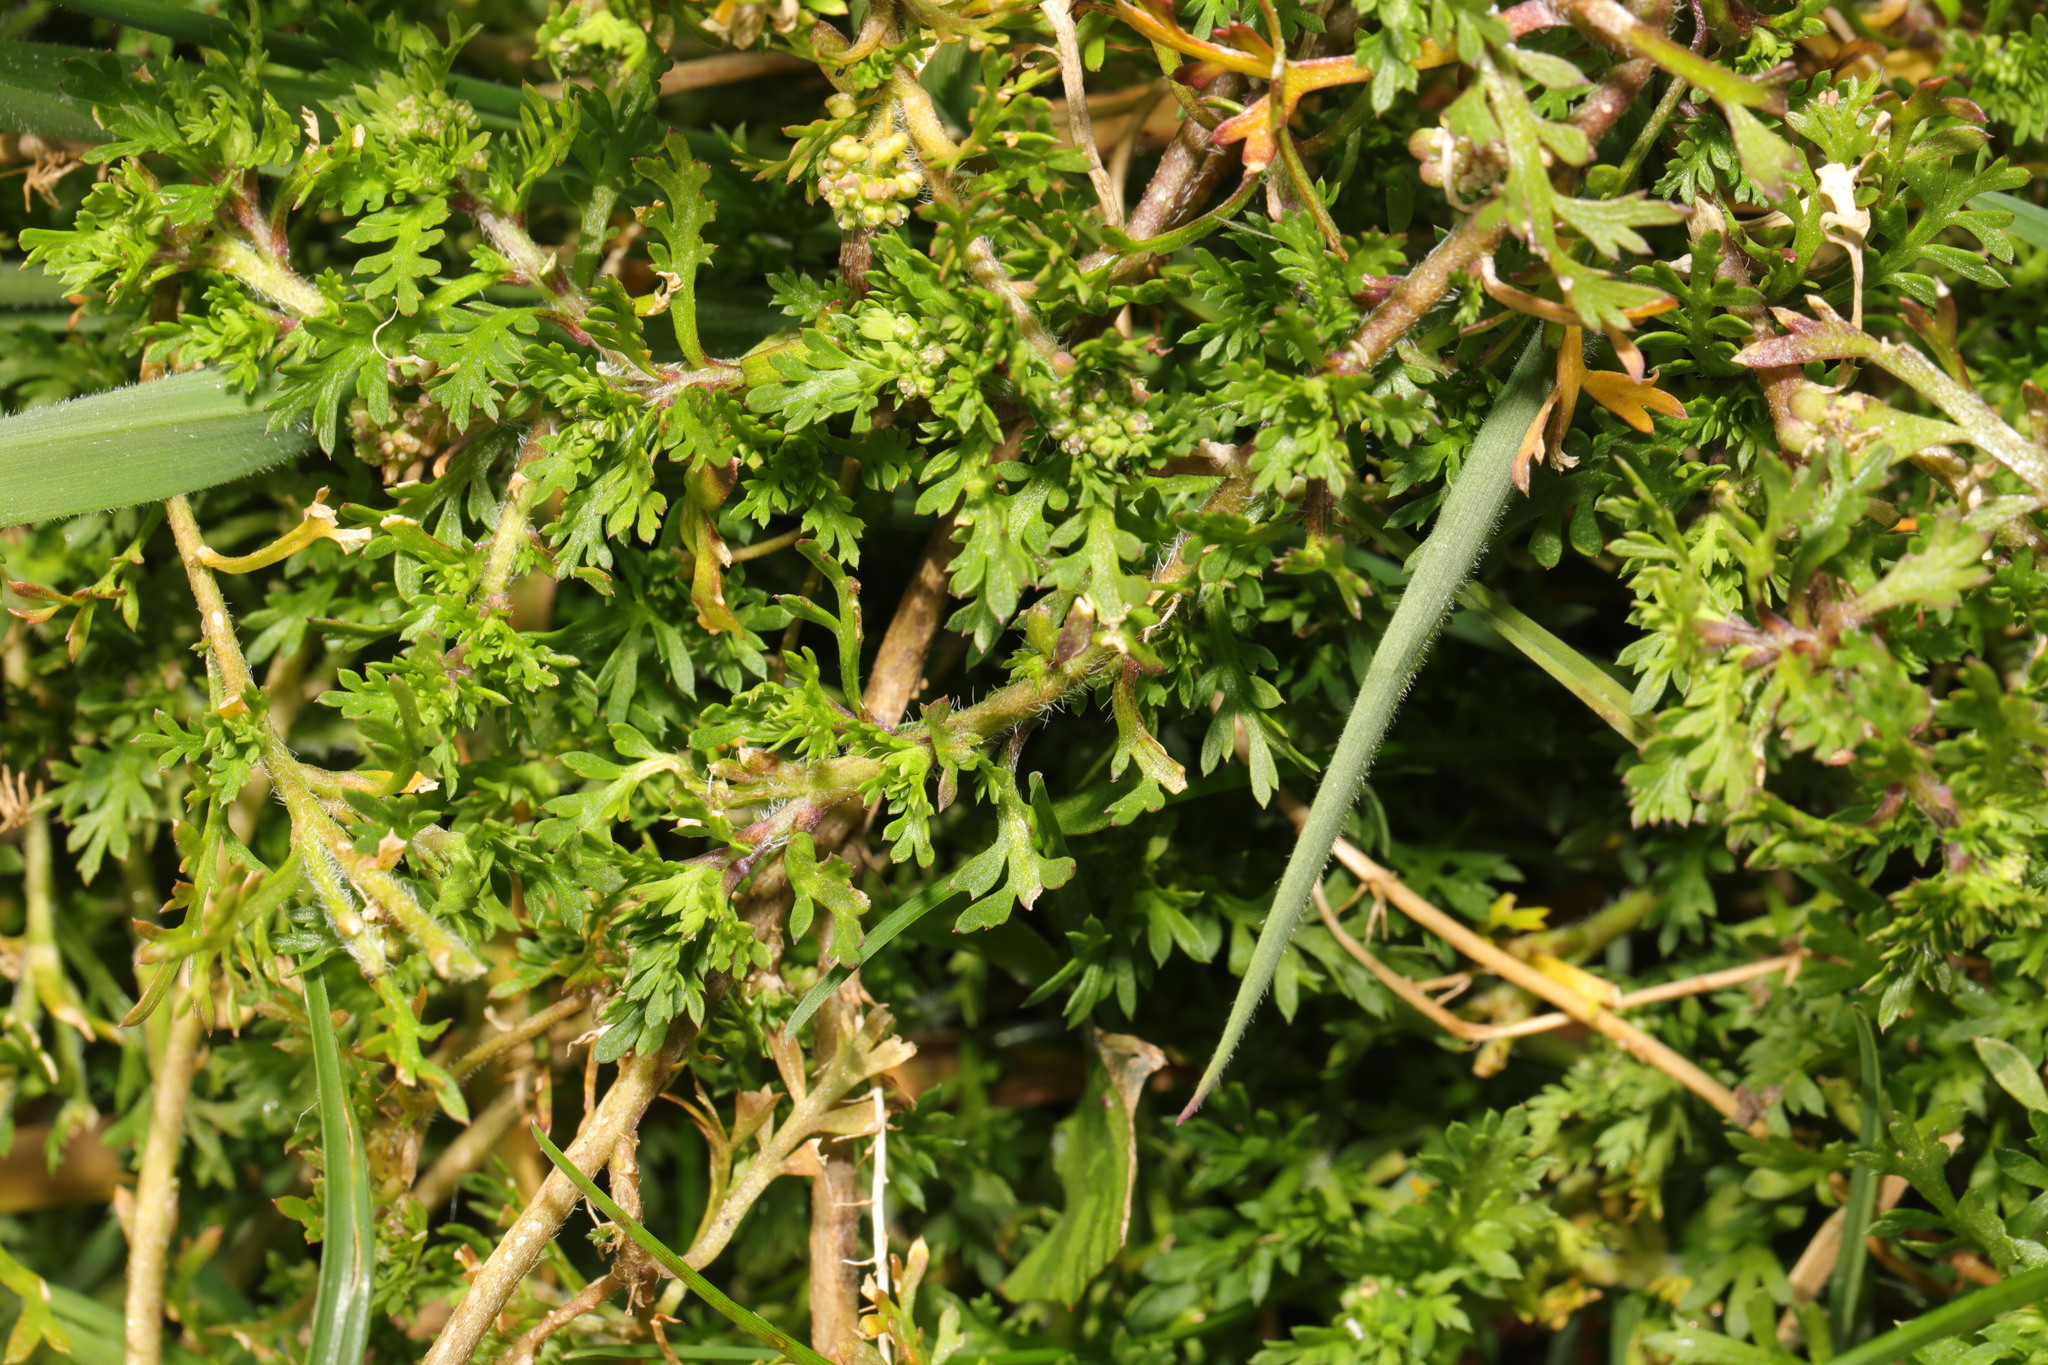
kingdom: Plantae
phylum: Tracheophyta
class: Magnoliopsida
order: Brassicales
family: Brassicaceae
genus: Lepidium
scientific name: Lepidium didymum
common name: Lesser swinecress
